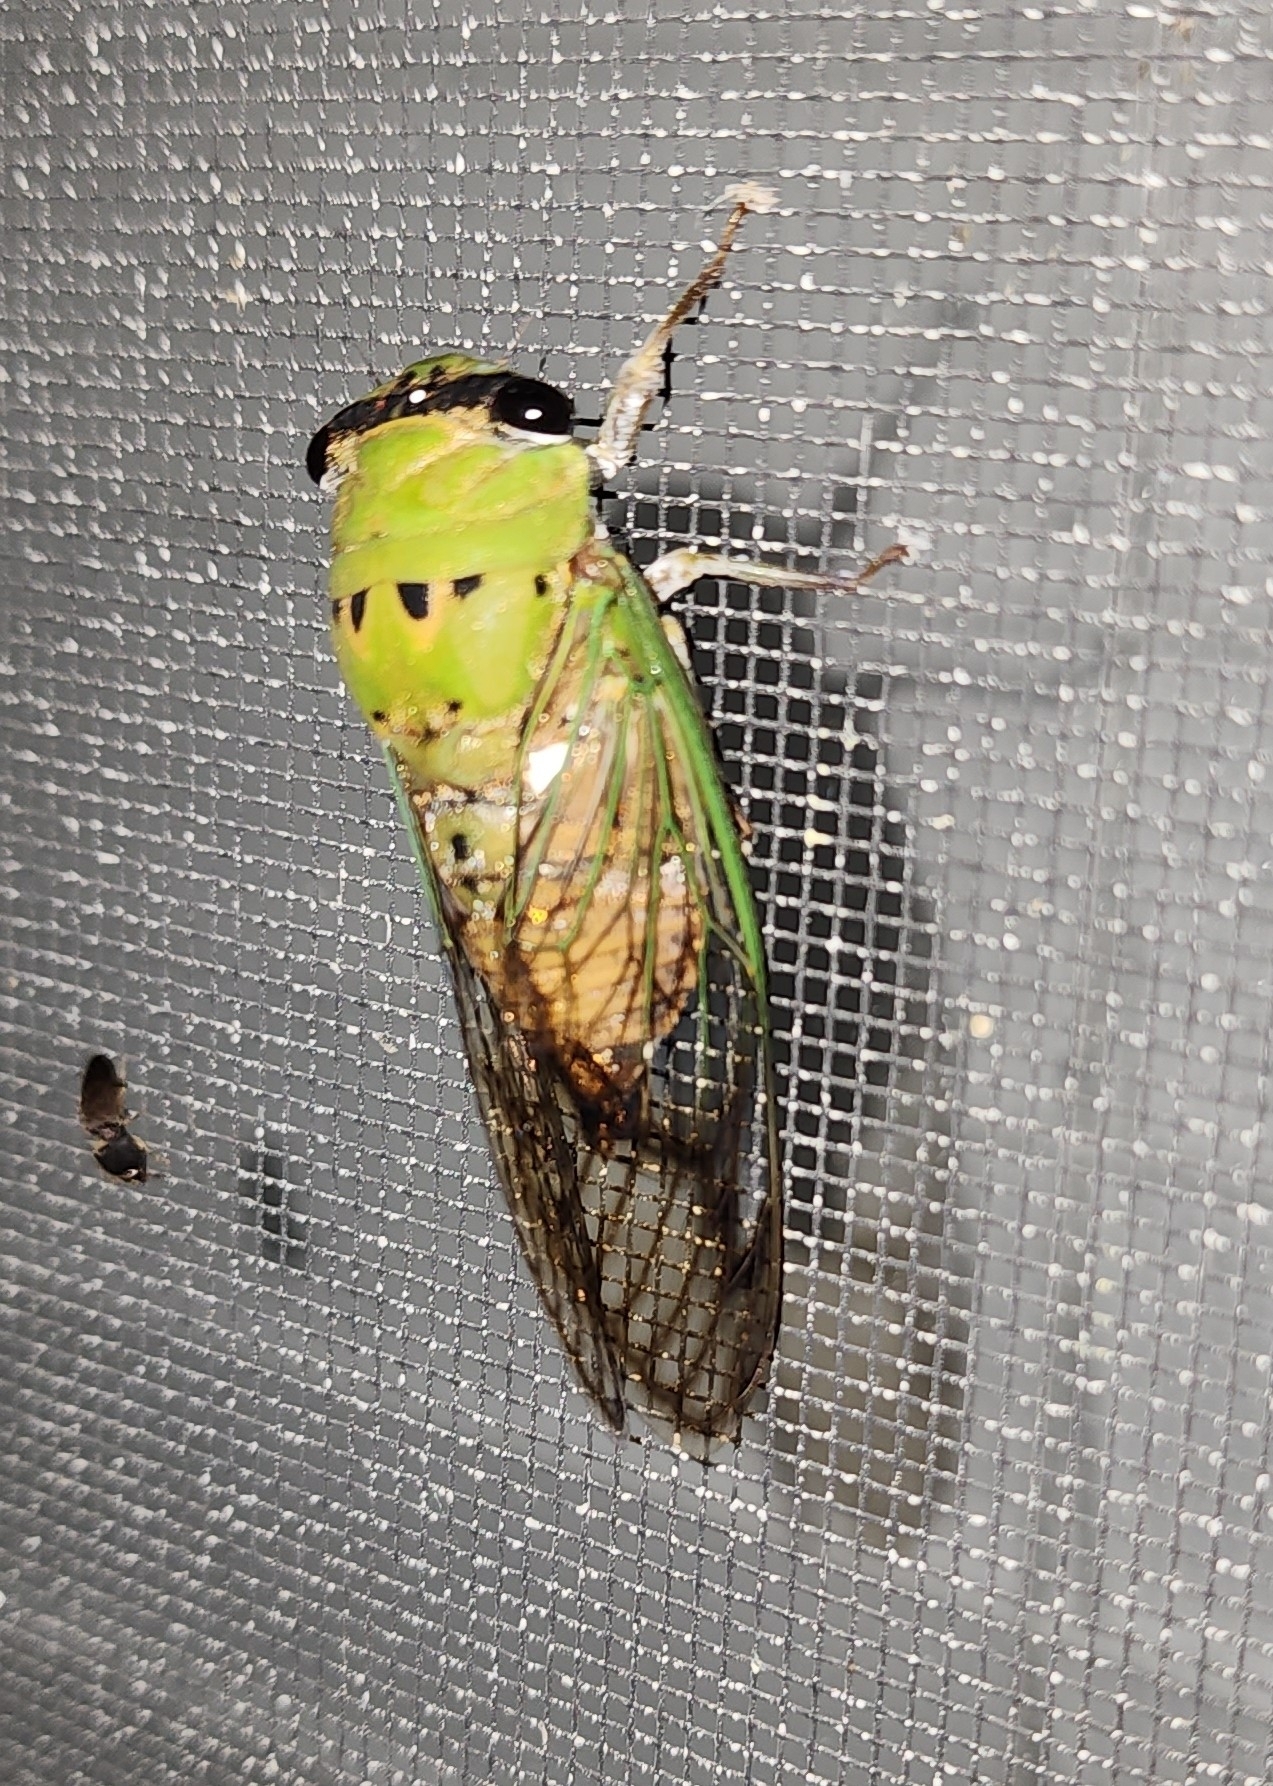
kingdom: Animalia
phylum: Arthropoda
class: Insecta
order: Hemiptera
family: Cicadidae
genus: Neotibicen
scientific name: Neotibicen superbus
